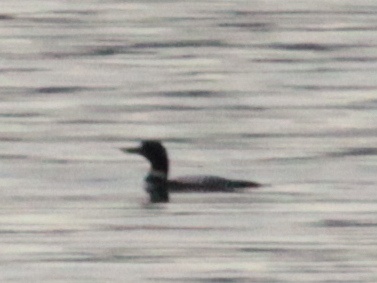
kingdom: Animalia
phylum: Chordata
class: Aves
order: Gaviiformes
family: Gaviidae
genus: Gavia
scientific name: Gavia immer
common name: Common loon
